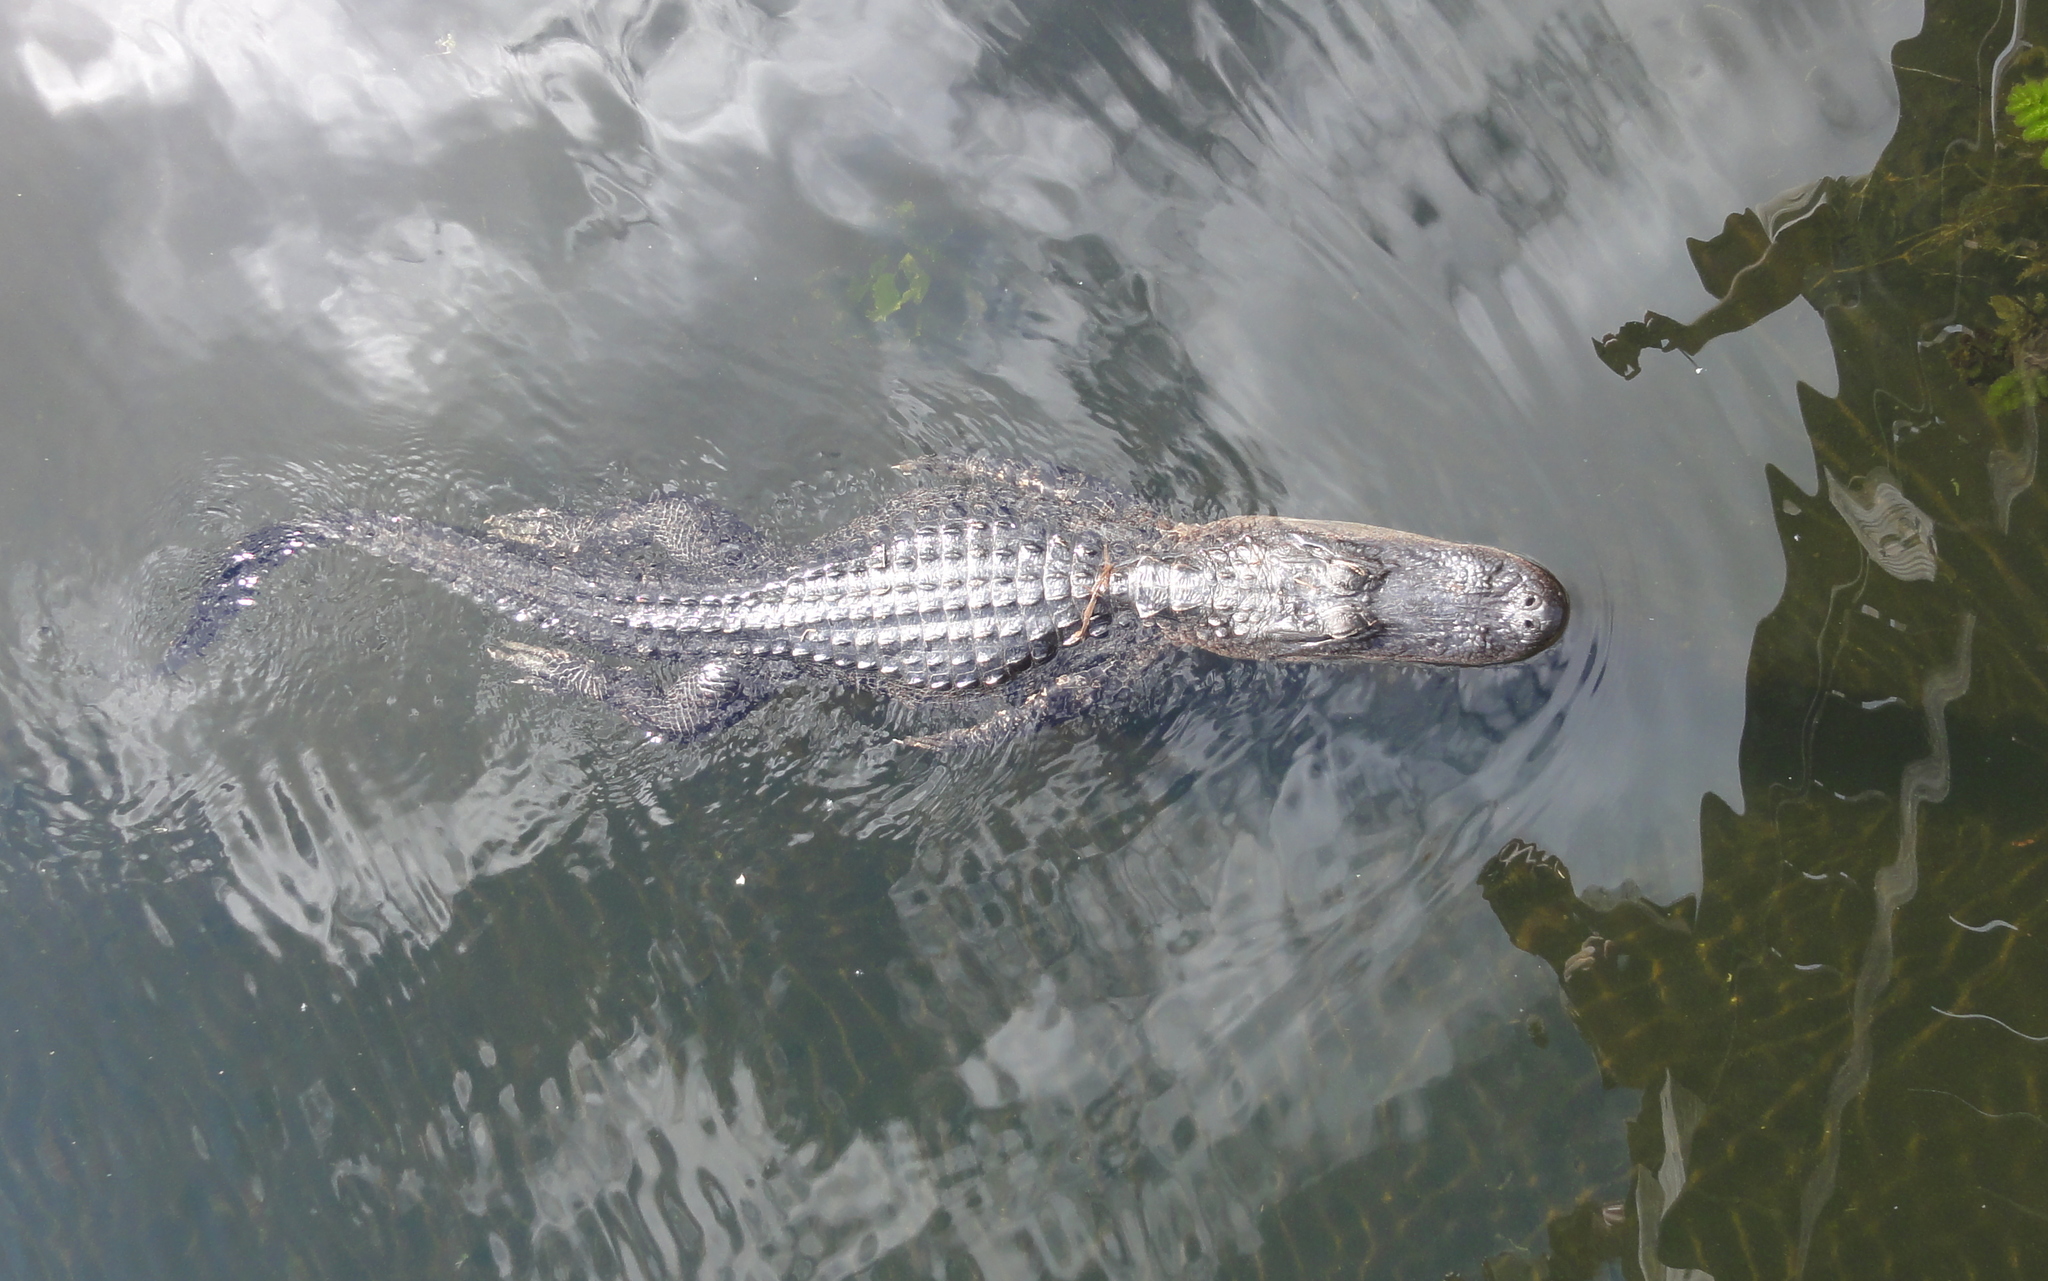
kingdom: Animalia
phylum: Chordata
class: Crocodylia
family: Alligatoridae
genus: Alligator
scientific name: Alligator mississippiensis
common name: American alligator
